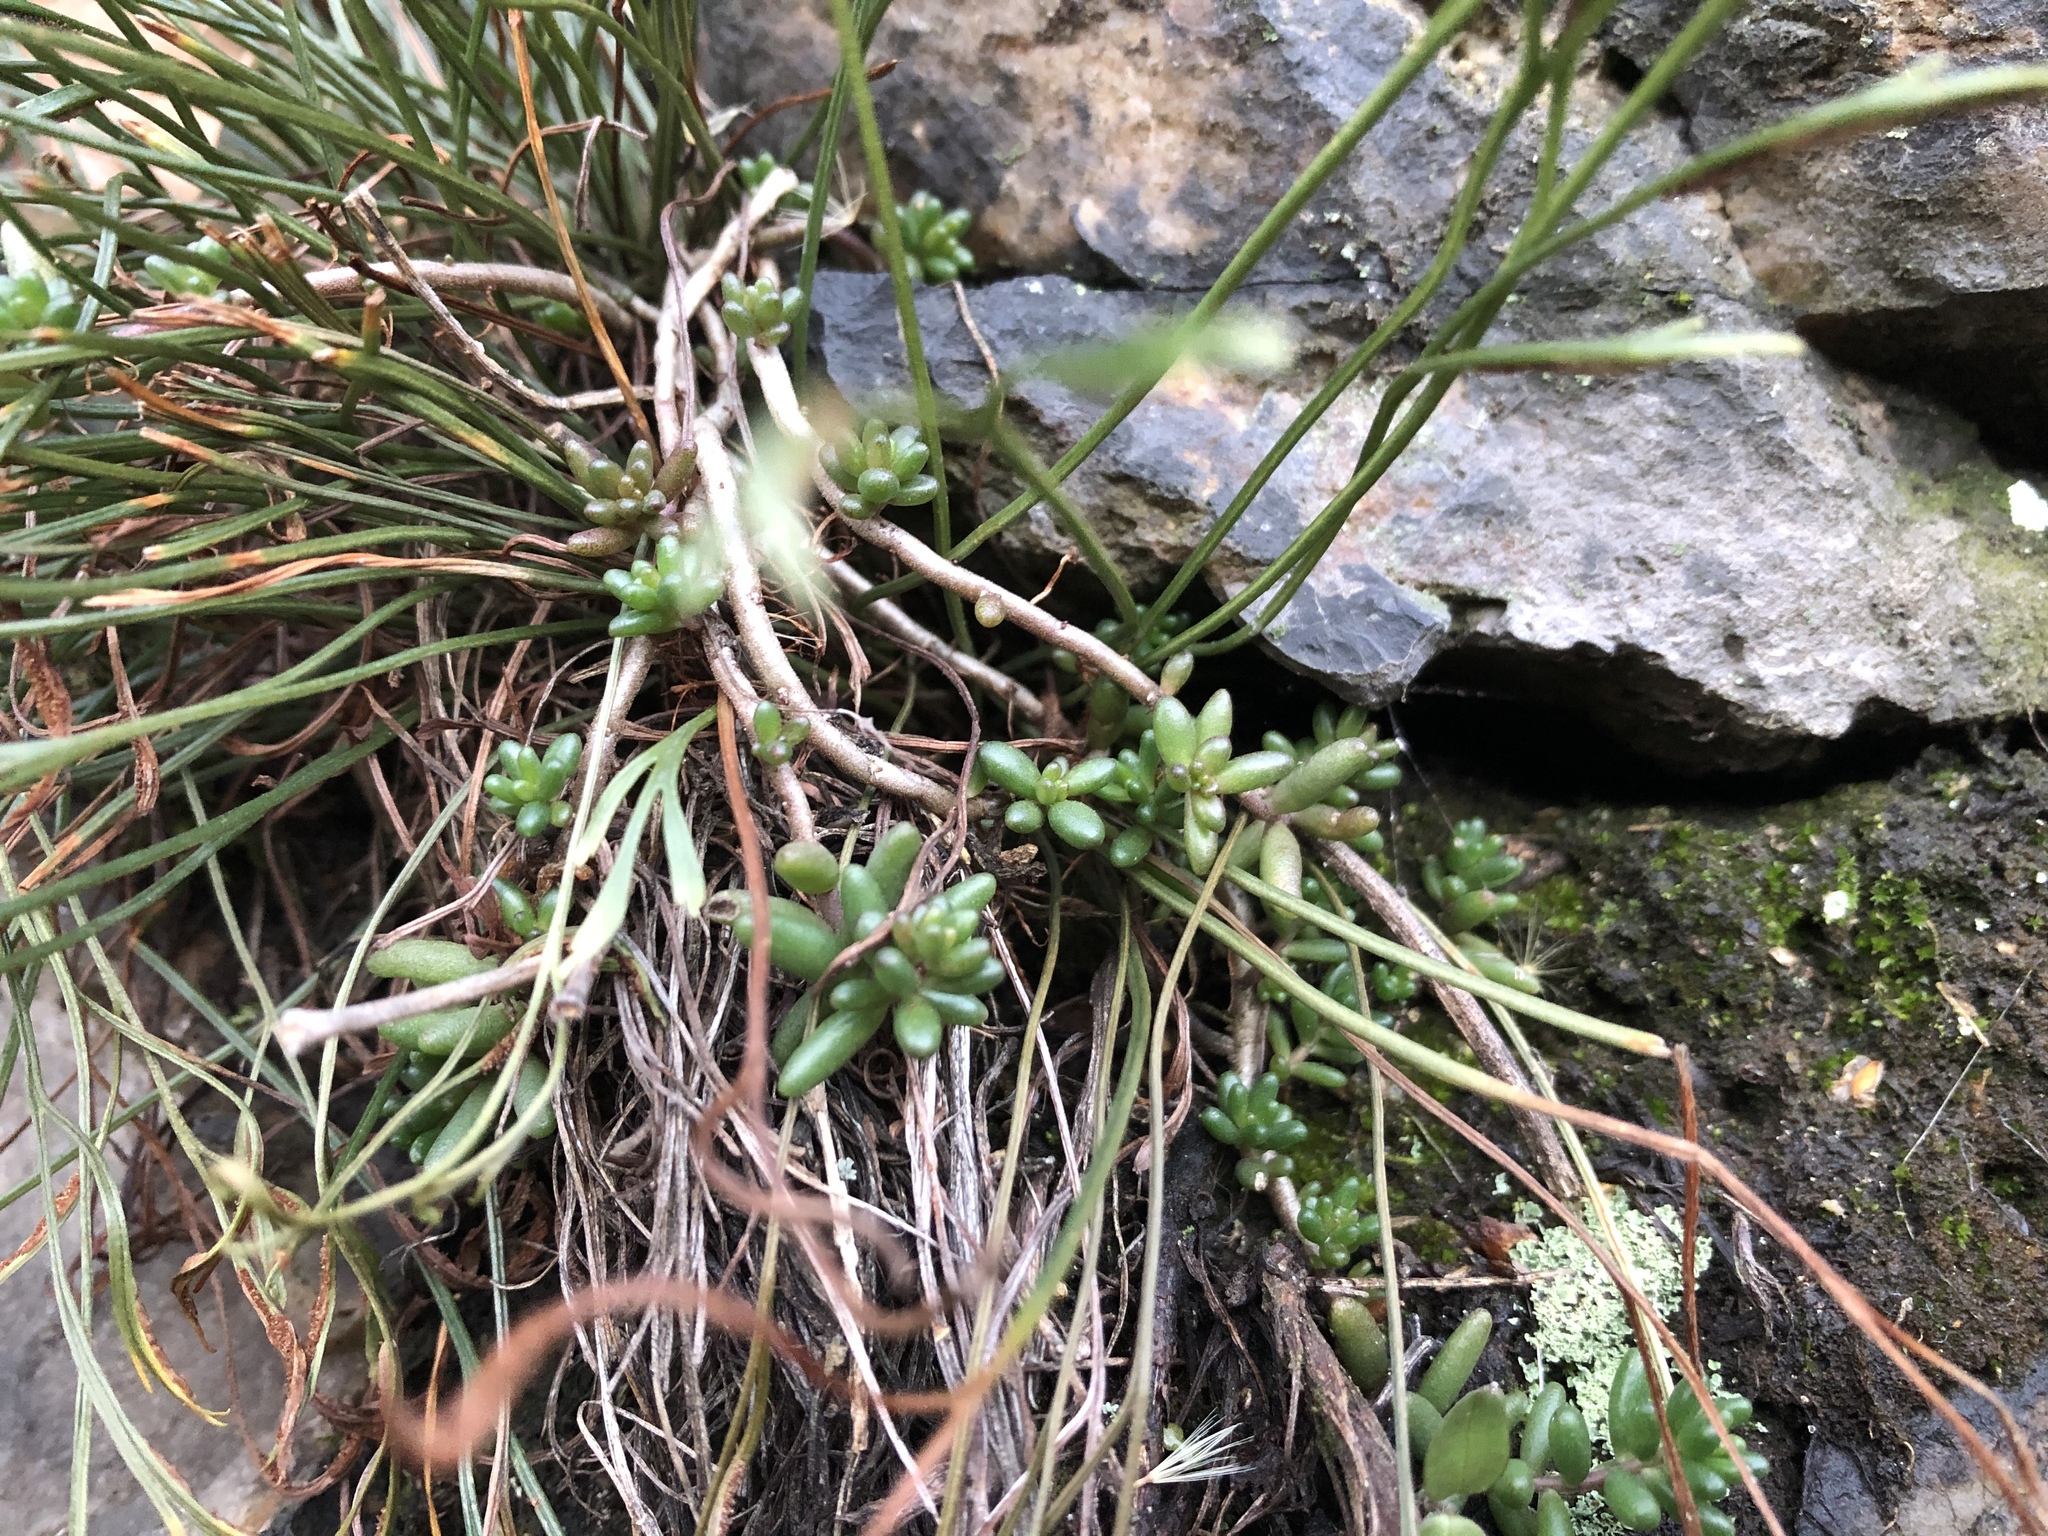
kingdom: Plantae
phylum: Tracheophyta
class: Magnoliopsida
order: Saxifragales
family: Crassulaceae
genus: Sedum
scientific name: Sedum album
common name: White stonecrop
